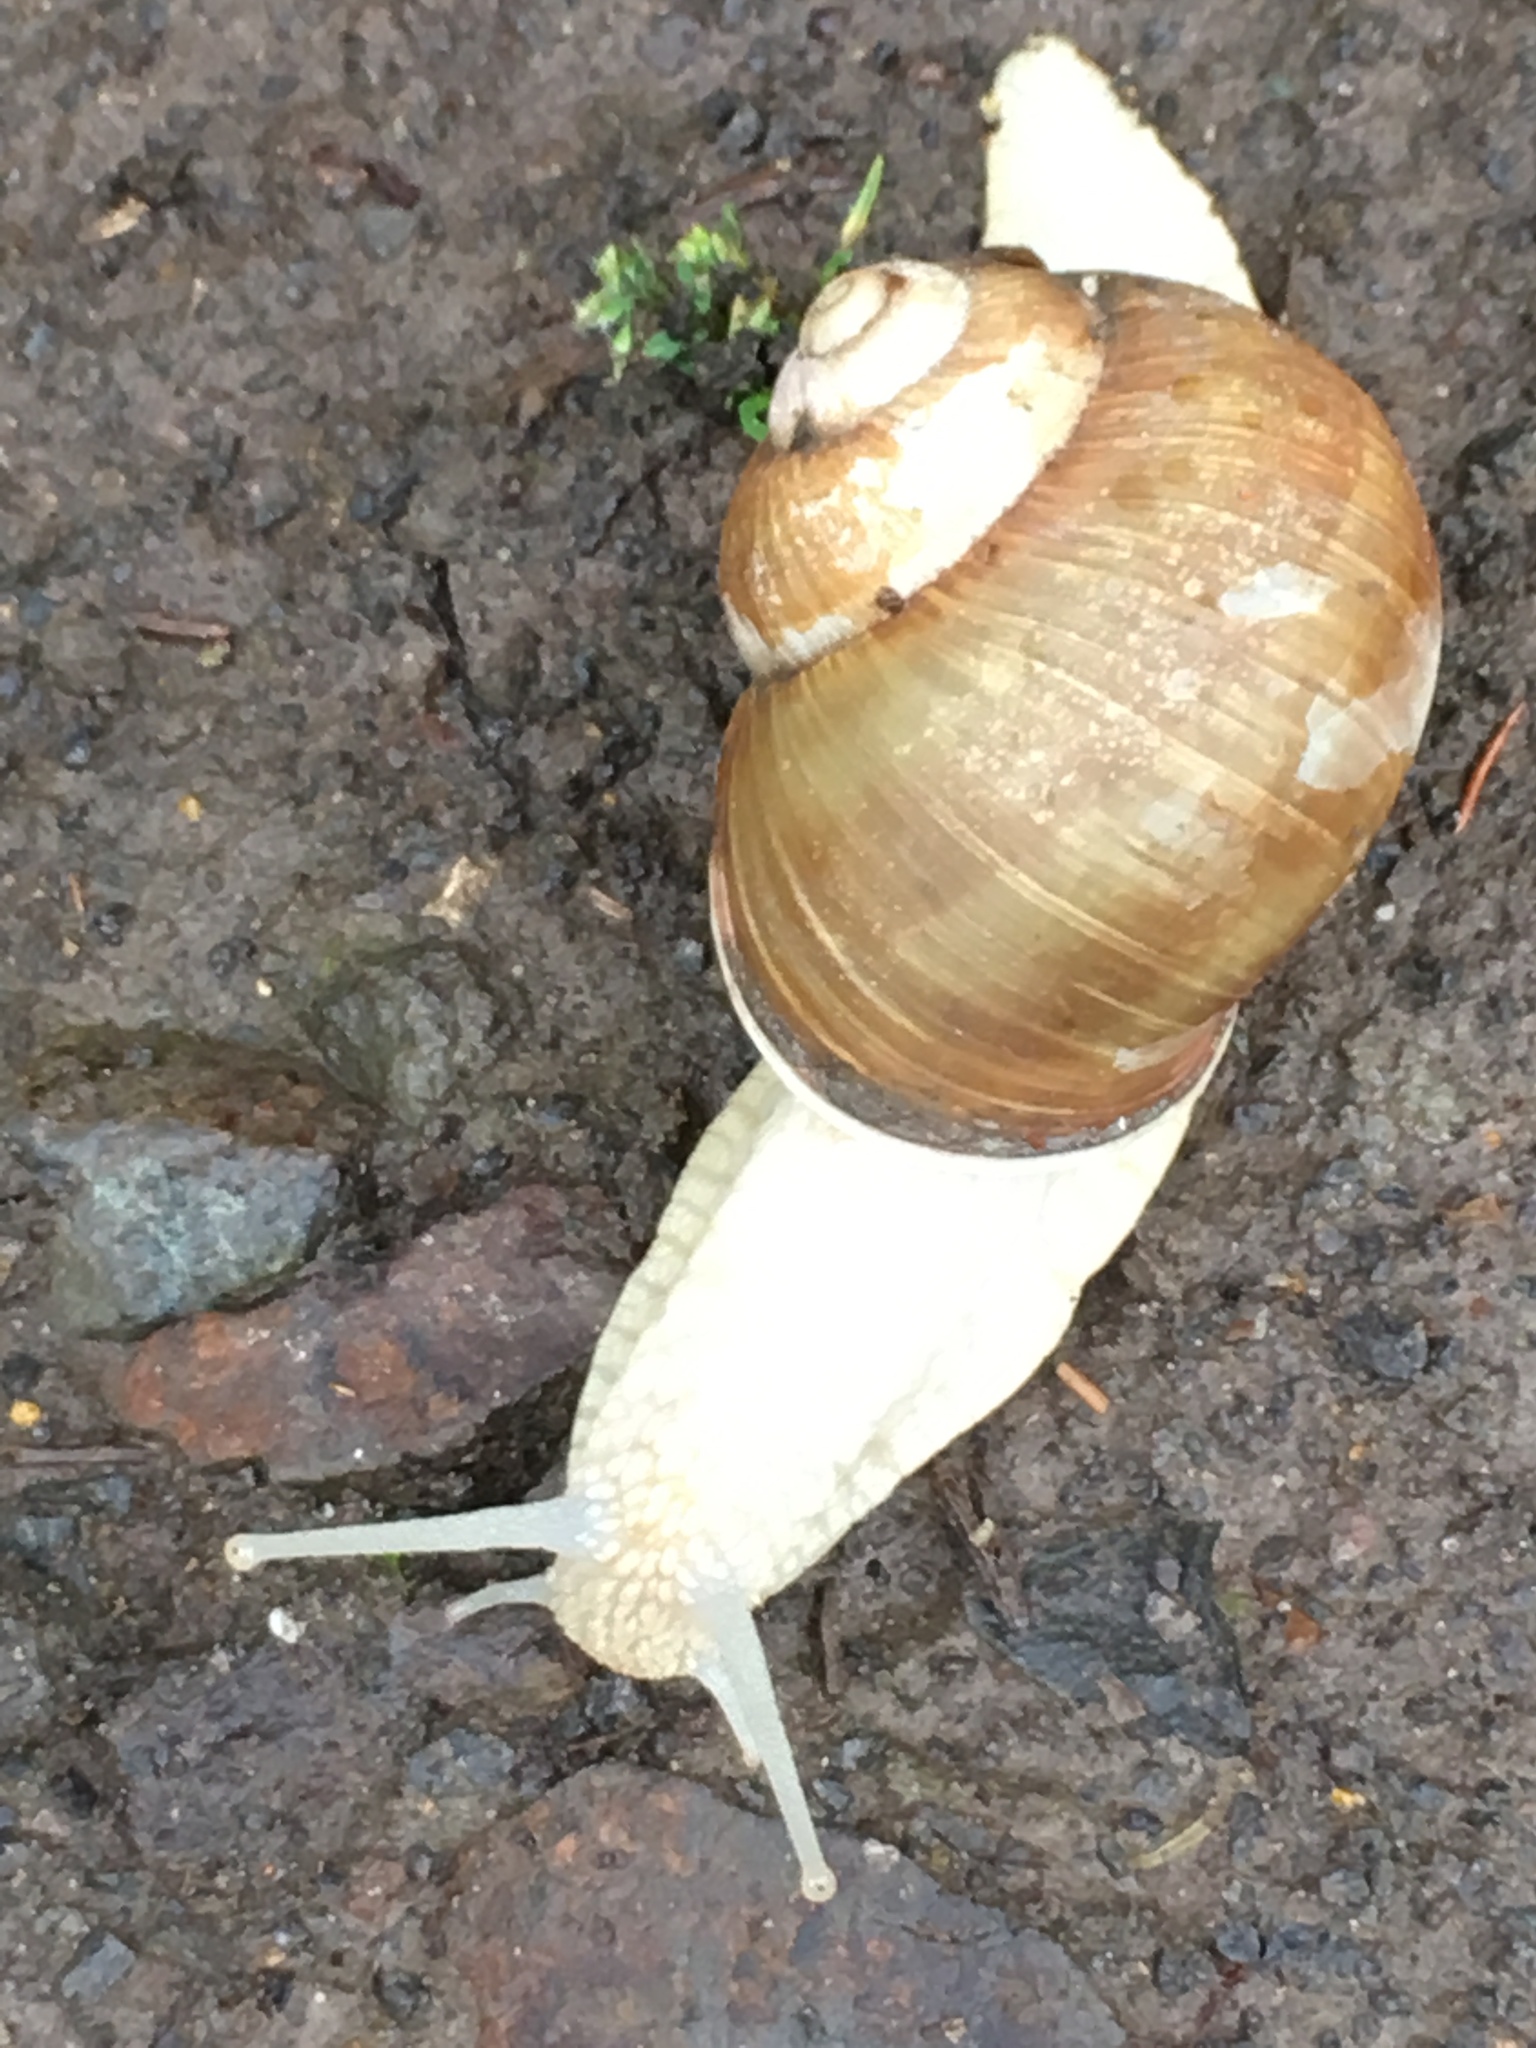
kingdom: Animalia
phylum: Mollusca
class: Gastropoda
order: Stylommatophora
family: Helicidae
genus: Helix
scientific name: Helix pomatia
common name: Roman snail
